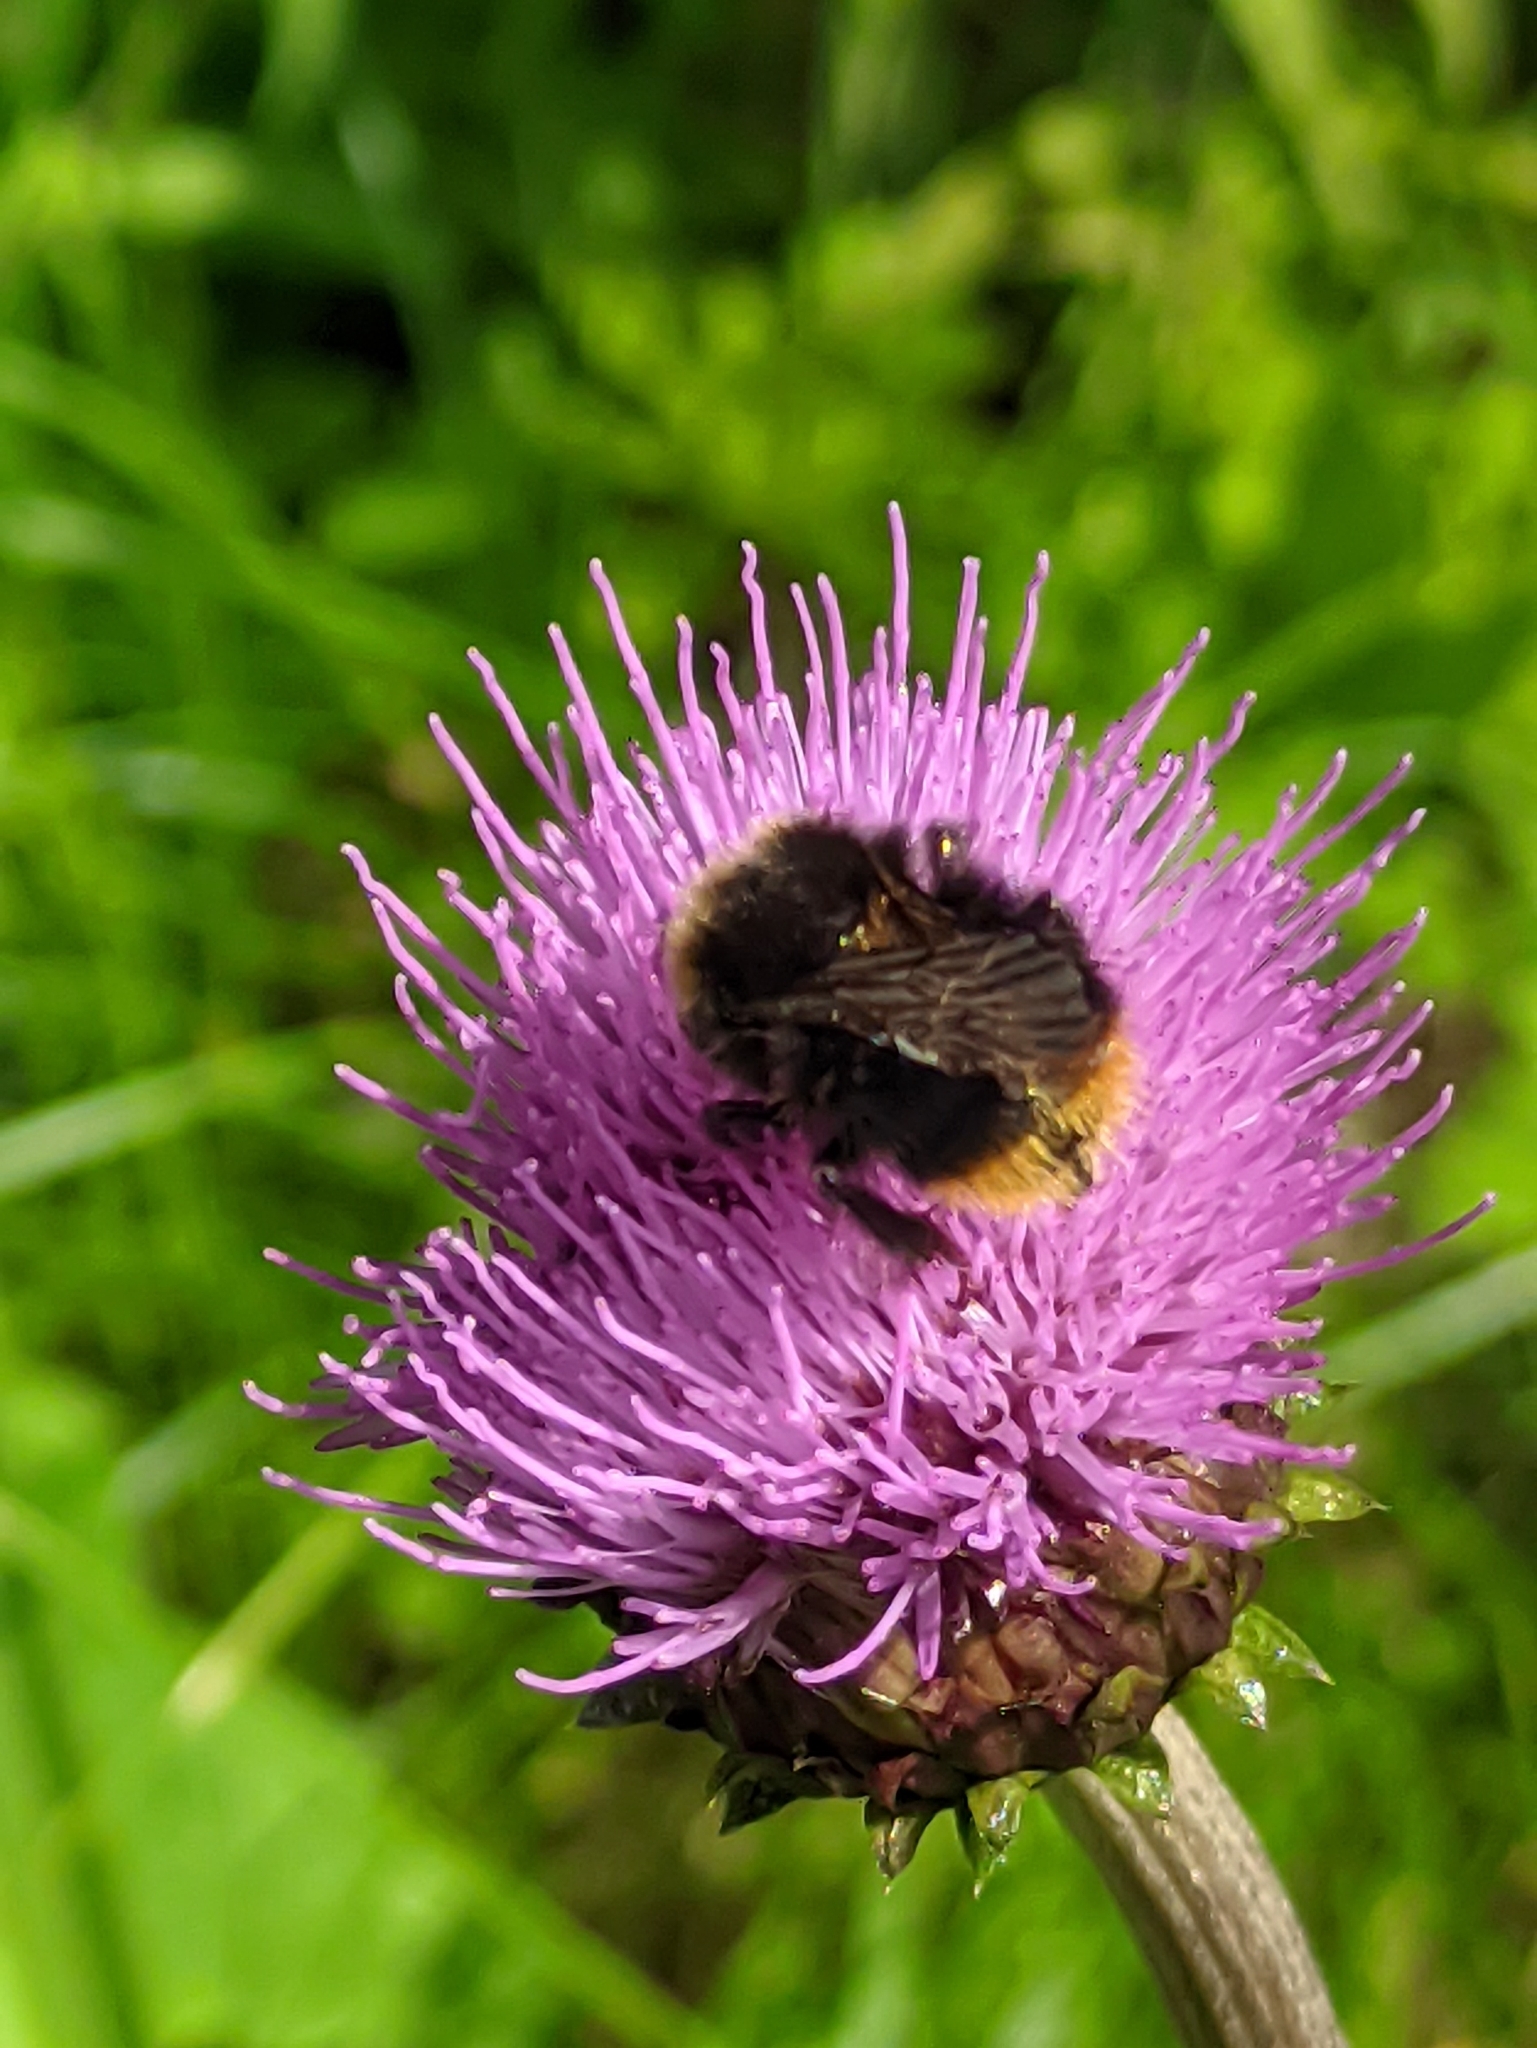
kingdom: Animalia
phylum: Arthropoda
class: Insecta
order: Hymenoptera
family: Apidae
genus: Bombus
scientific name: Bombus pratorum
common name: Early humble-bee
